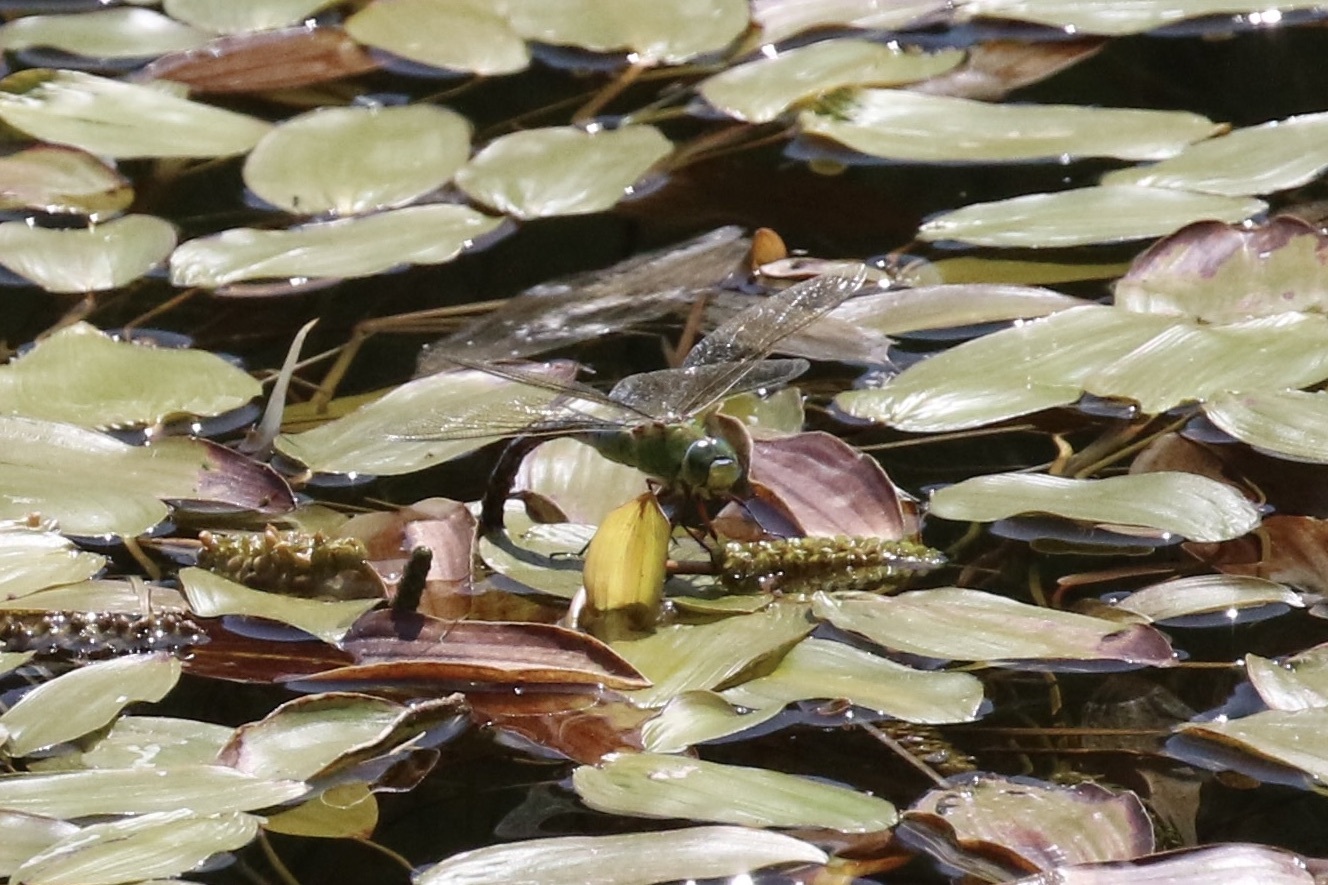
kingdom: Animalia
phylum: Arthropoda
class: Insecta
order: Odonata
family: Aeshnidae
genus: Anax
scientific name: Anax imperator
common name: Emperor dragonfly
